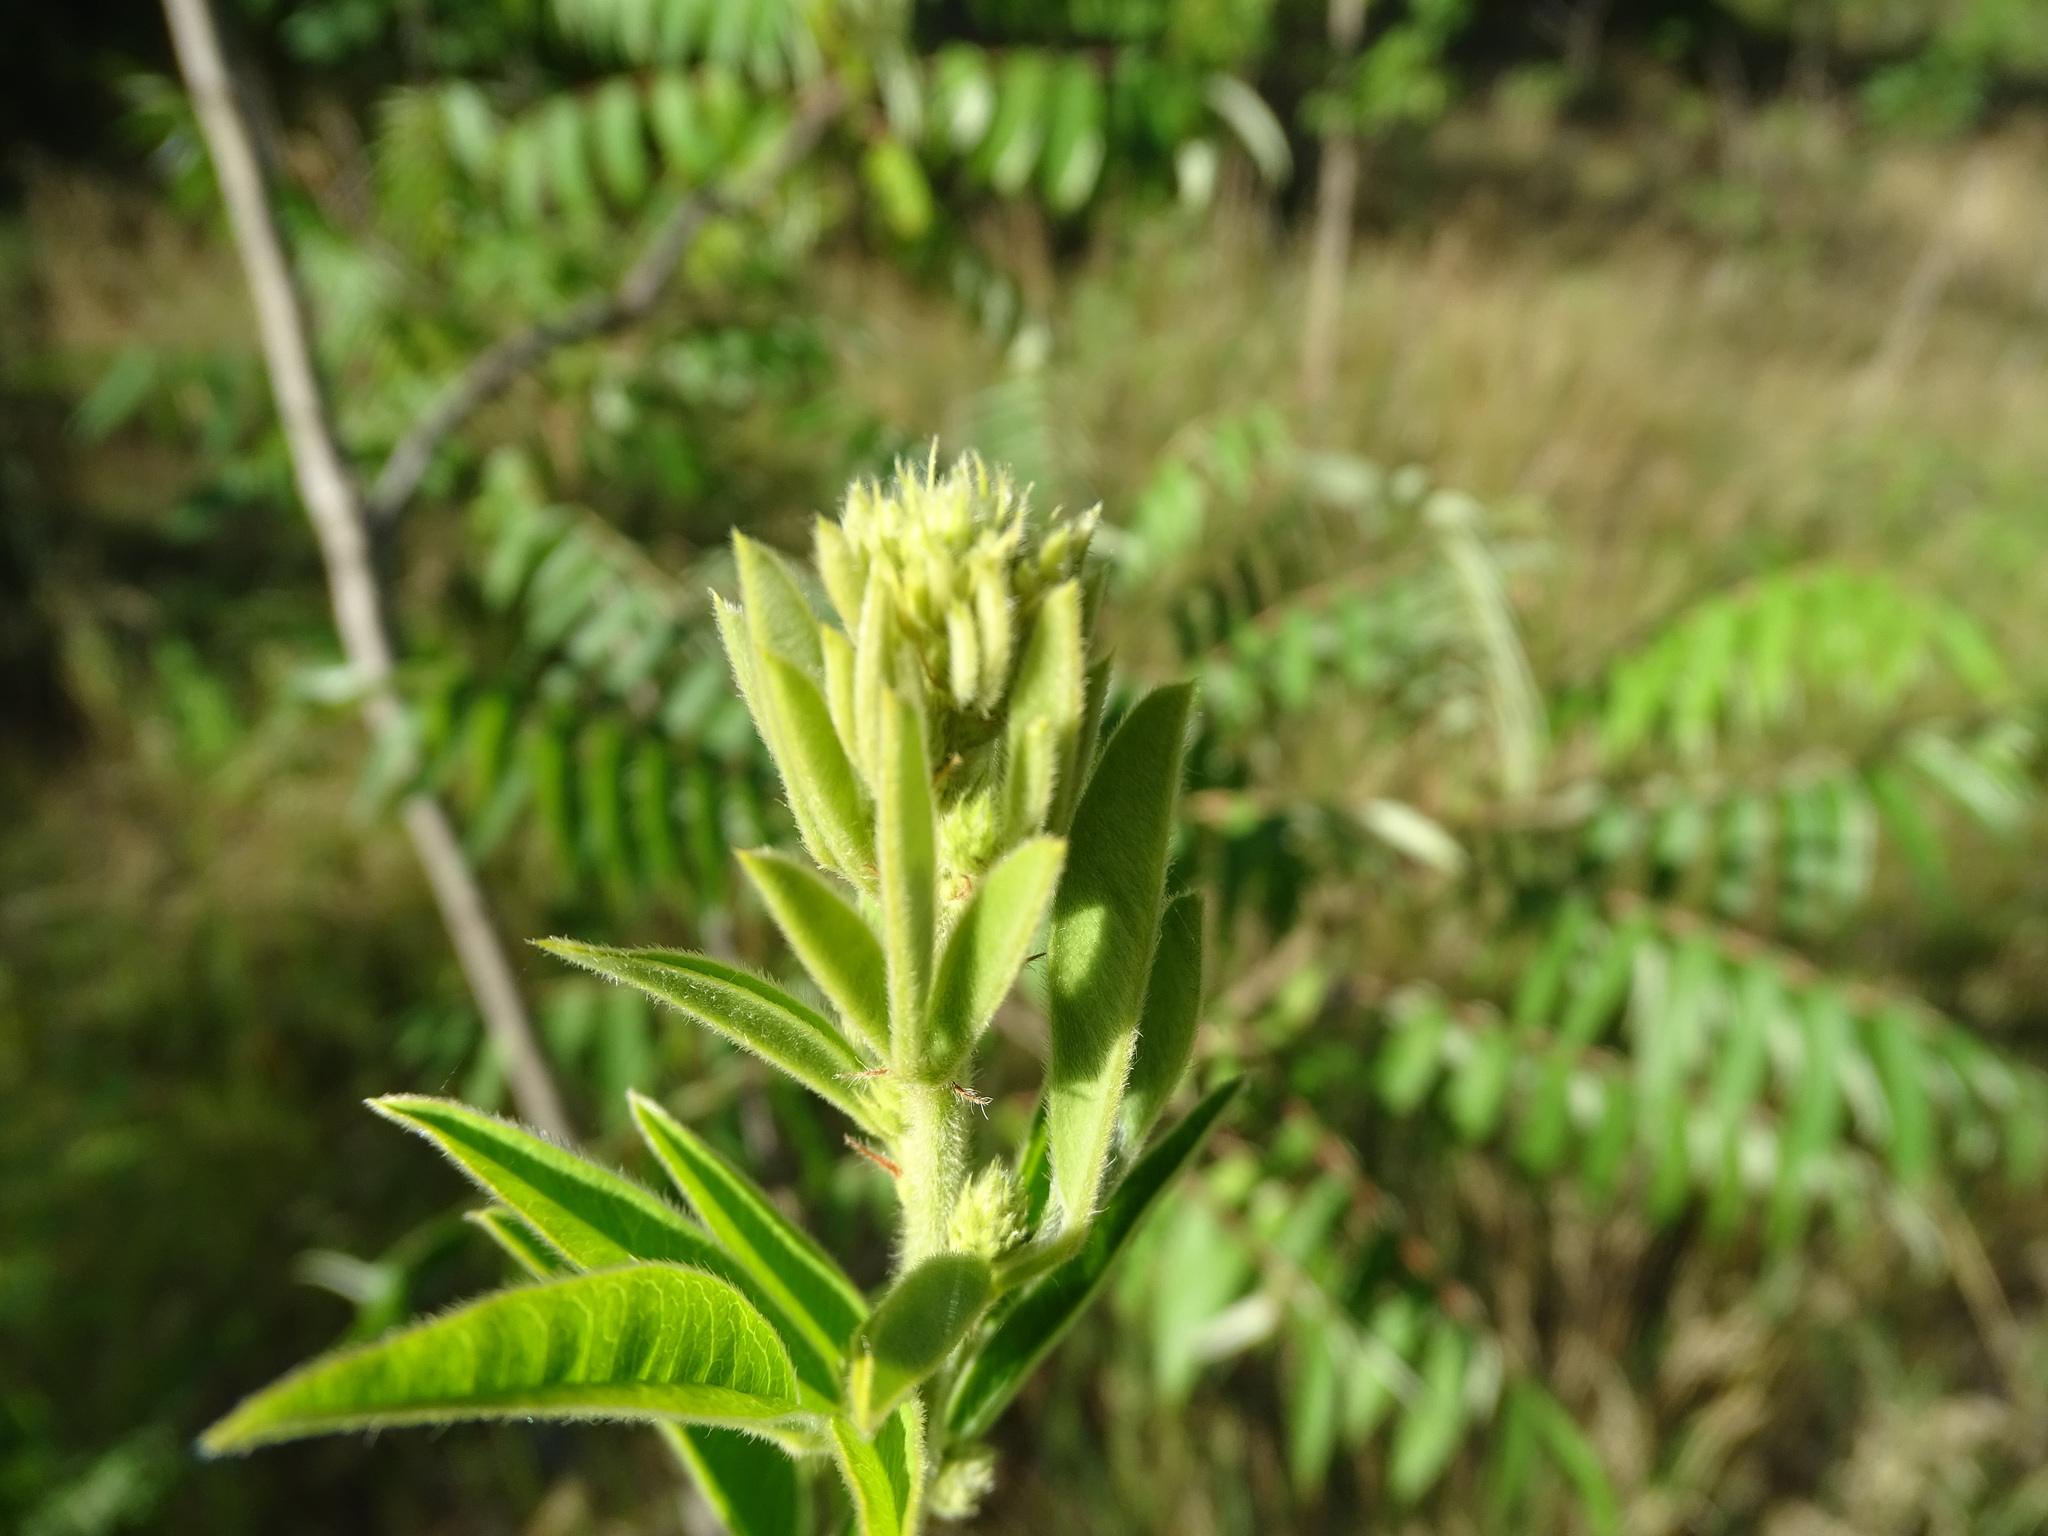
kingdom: Plantae
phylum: Tracheophyta
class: Magnoliopsida
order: Fabales
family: Fabaceae
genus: Lespedeza
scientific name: Lespedeza capitata
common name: Dusty clover
